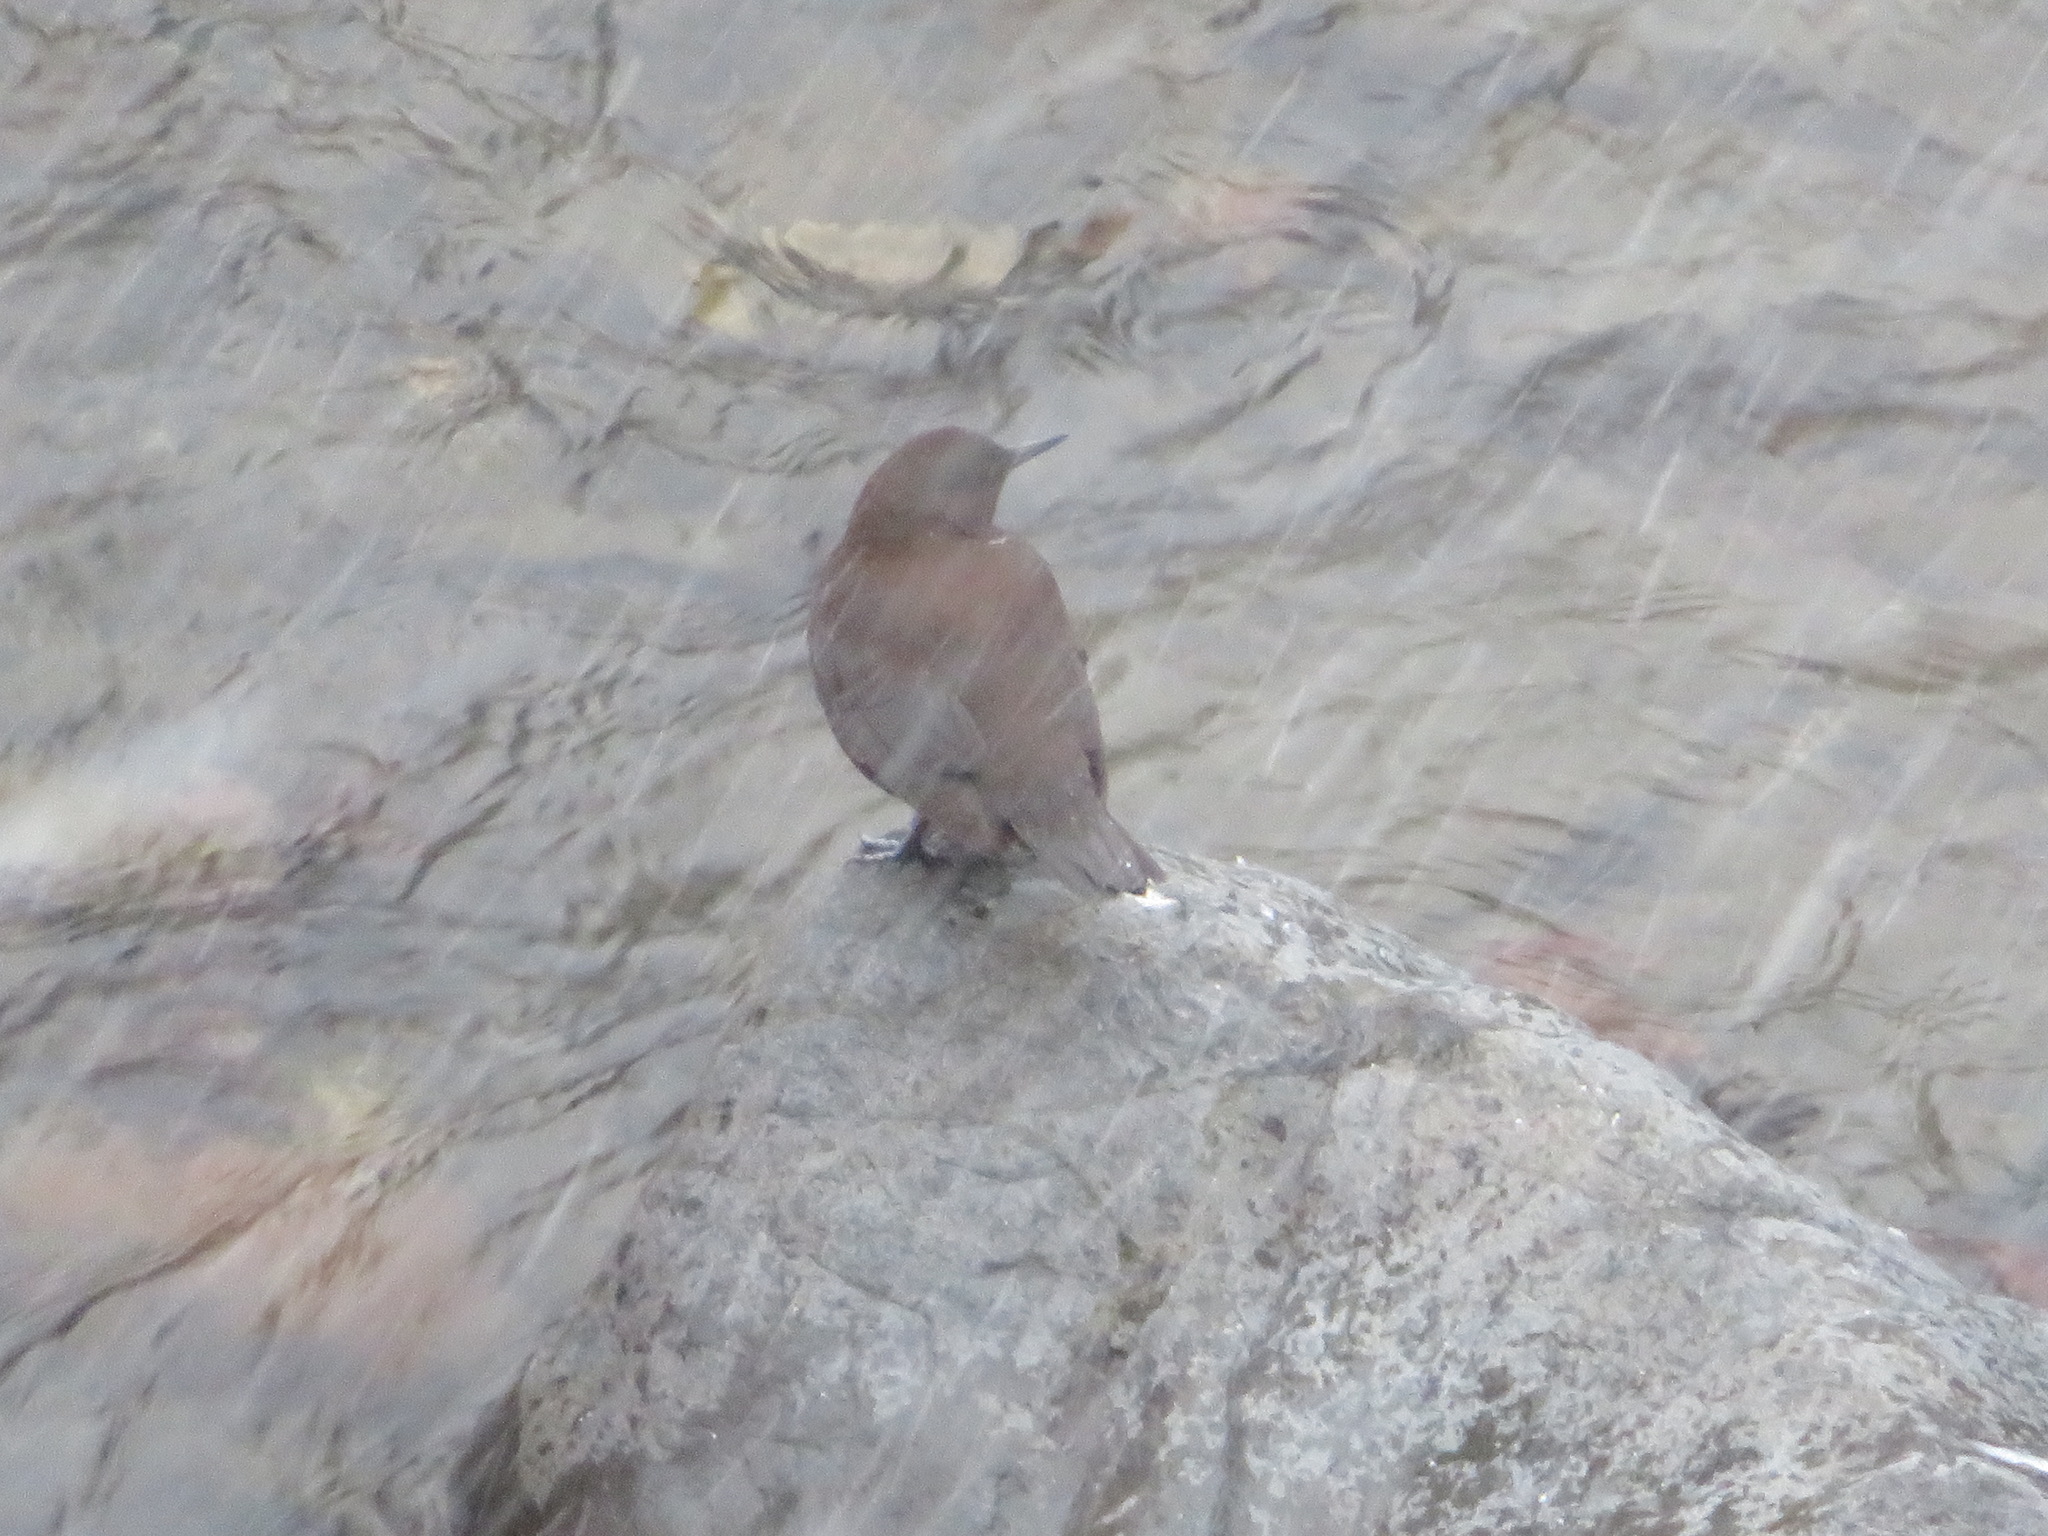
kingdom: Animalia
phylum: Chordata
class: Aves
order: Passeriformes
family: Cinclidae
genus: Cinclus
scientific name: Cinclus pallasii
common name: Brown dipper
